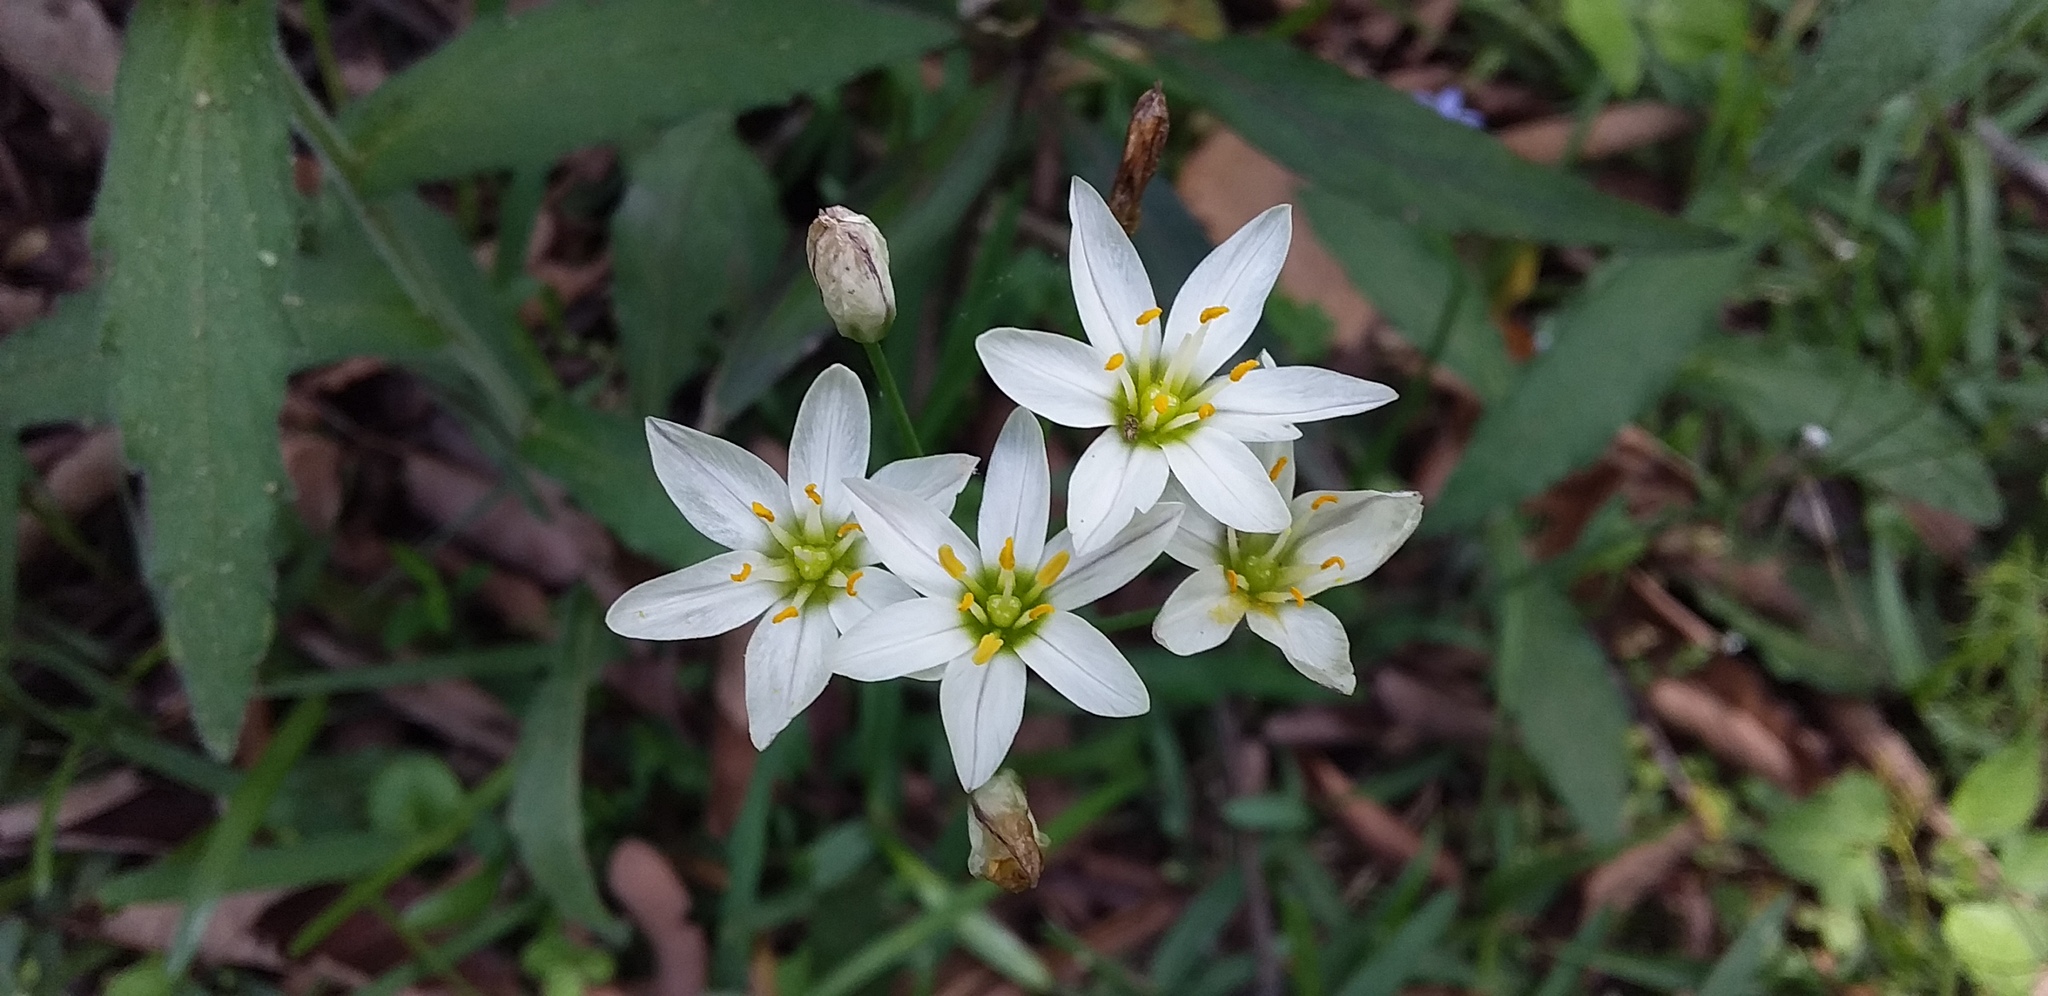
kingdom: Plantae
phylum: Tracheophyta
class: Liliopsida
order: Asparagales
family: Amaryllidaceae
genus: Nothoscordum
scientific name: Nothoscordum bivalve
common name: Crow-poison
